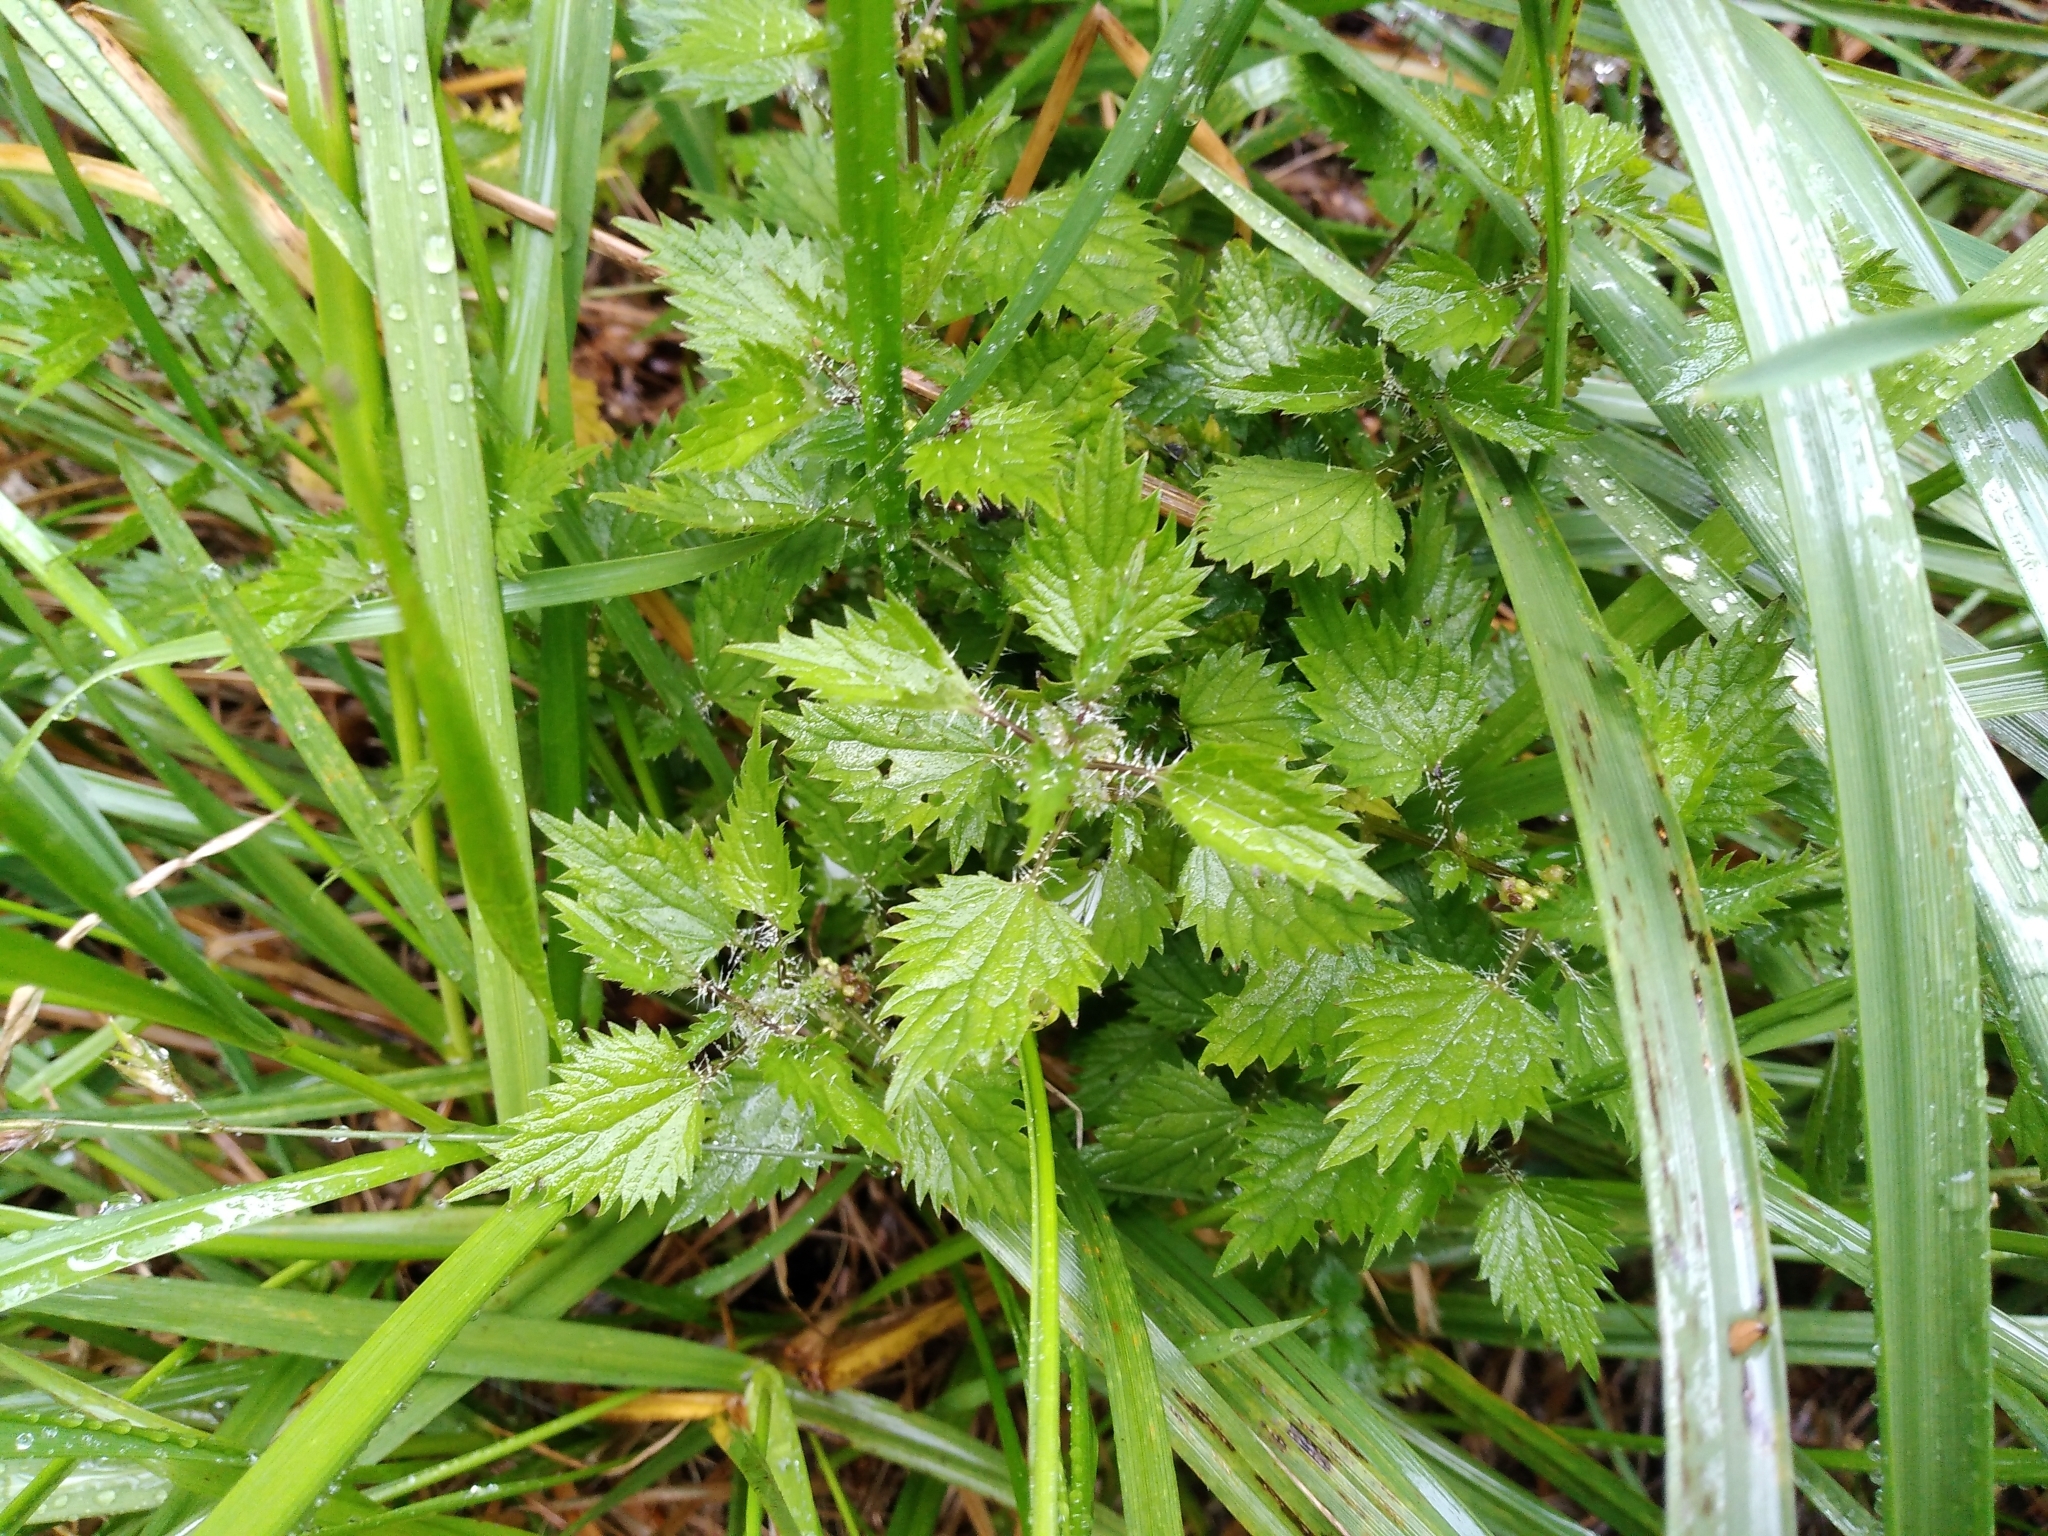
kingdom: Plantae
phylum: Tracheophyta
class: Magnoliopsida
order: Rosales
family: Urticaceae
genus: Urtica
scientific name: Urtica sykesii
